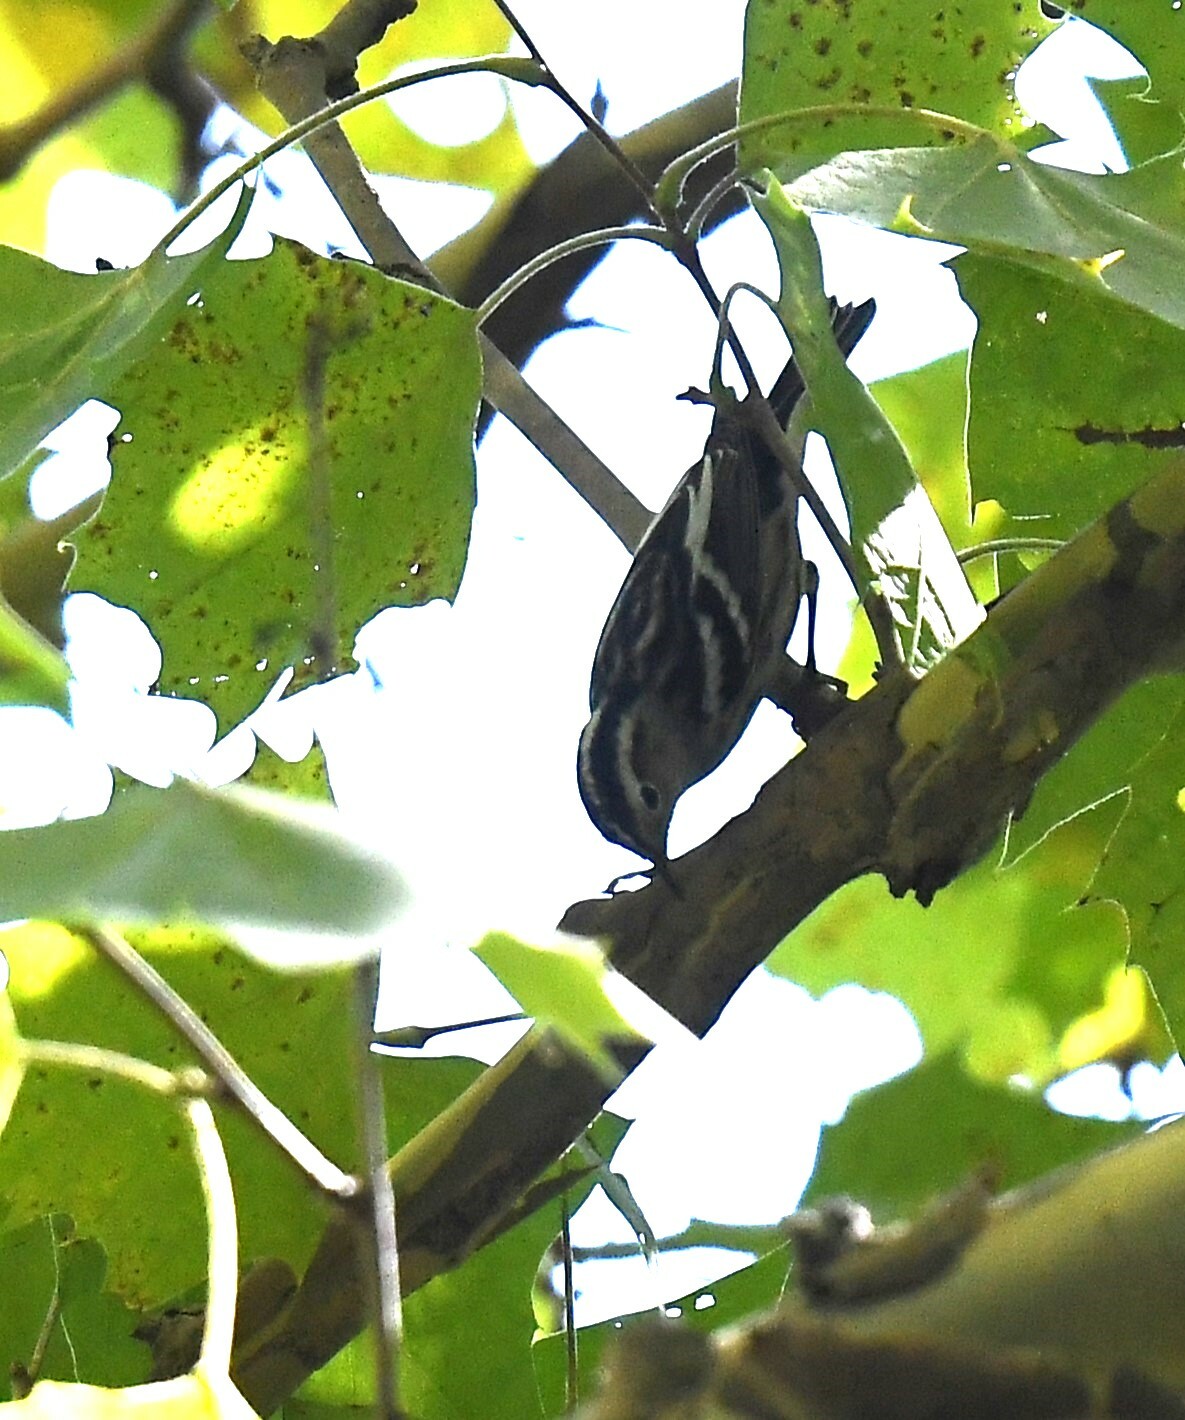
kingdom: Animalia
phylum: Chordata
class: Aves
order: Passeriformes
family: Parulidae
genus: Mniotilta
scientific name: Mniotilta varia
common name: Black-and-white warbler
